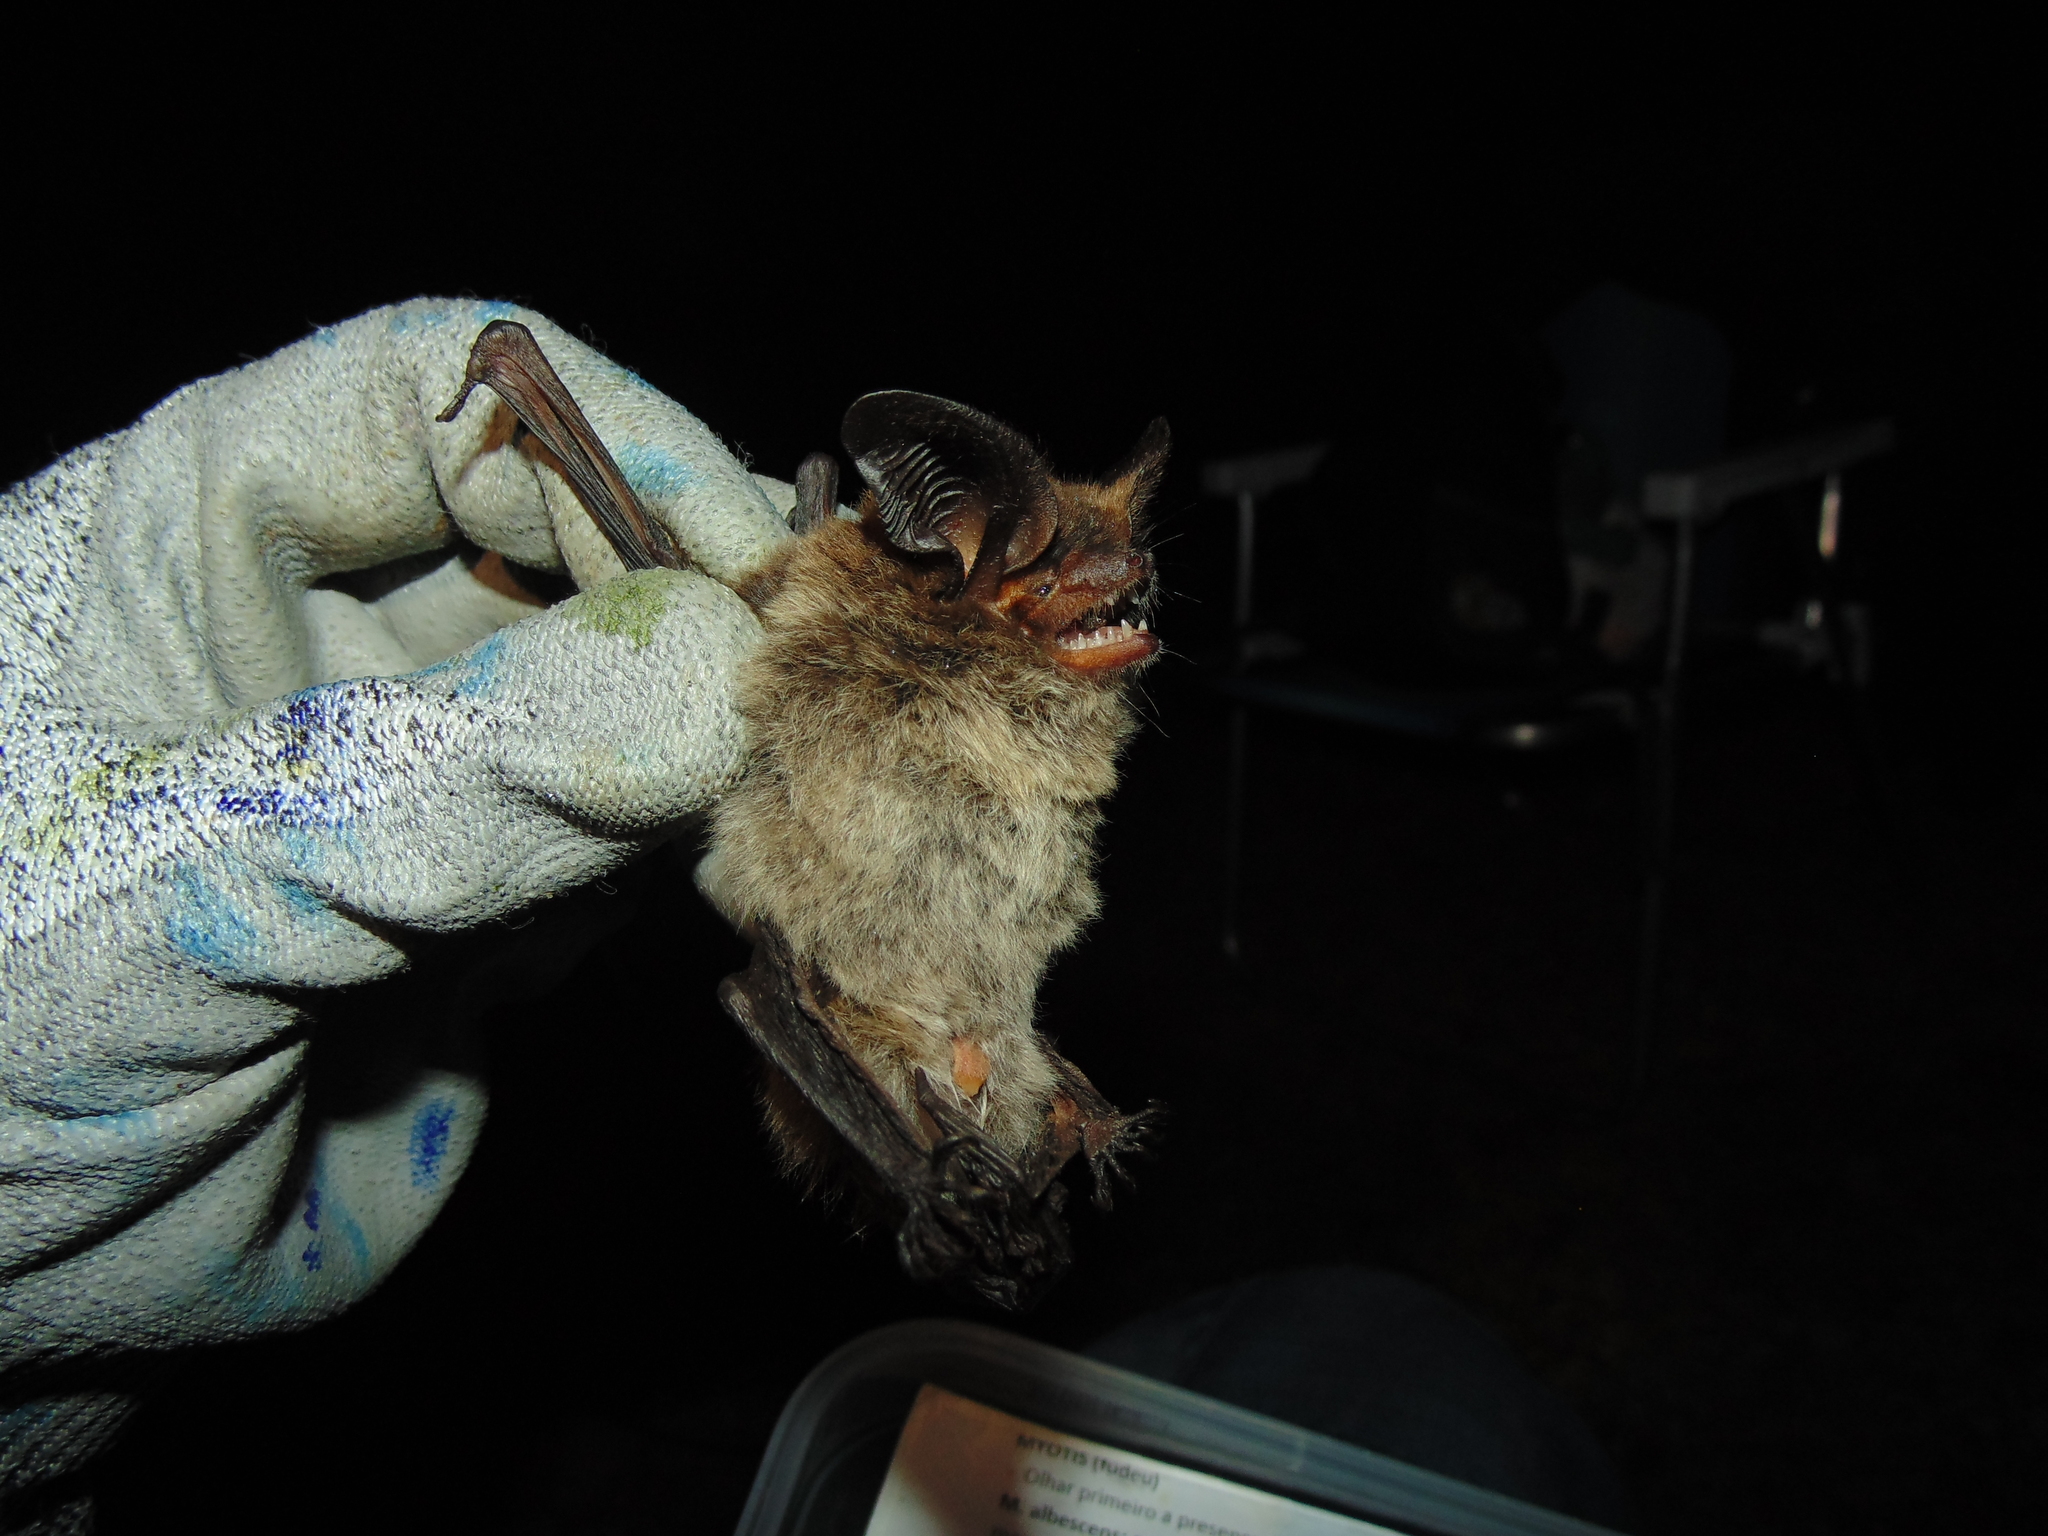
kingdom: Animalia
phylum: Chordata
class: Mammalia
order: Chiroptera
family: Vespertilionidae
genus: Histiotus
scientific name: Histiotus montanus
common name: Small big-eared brown bat
